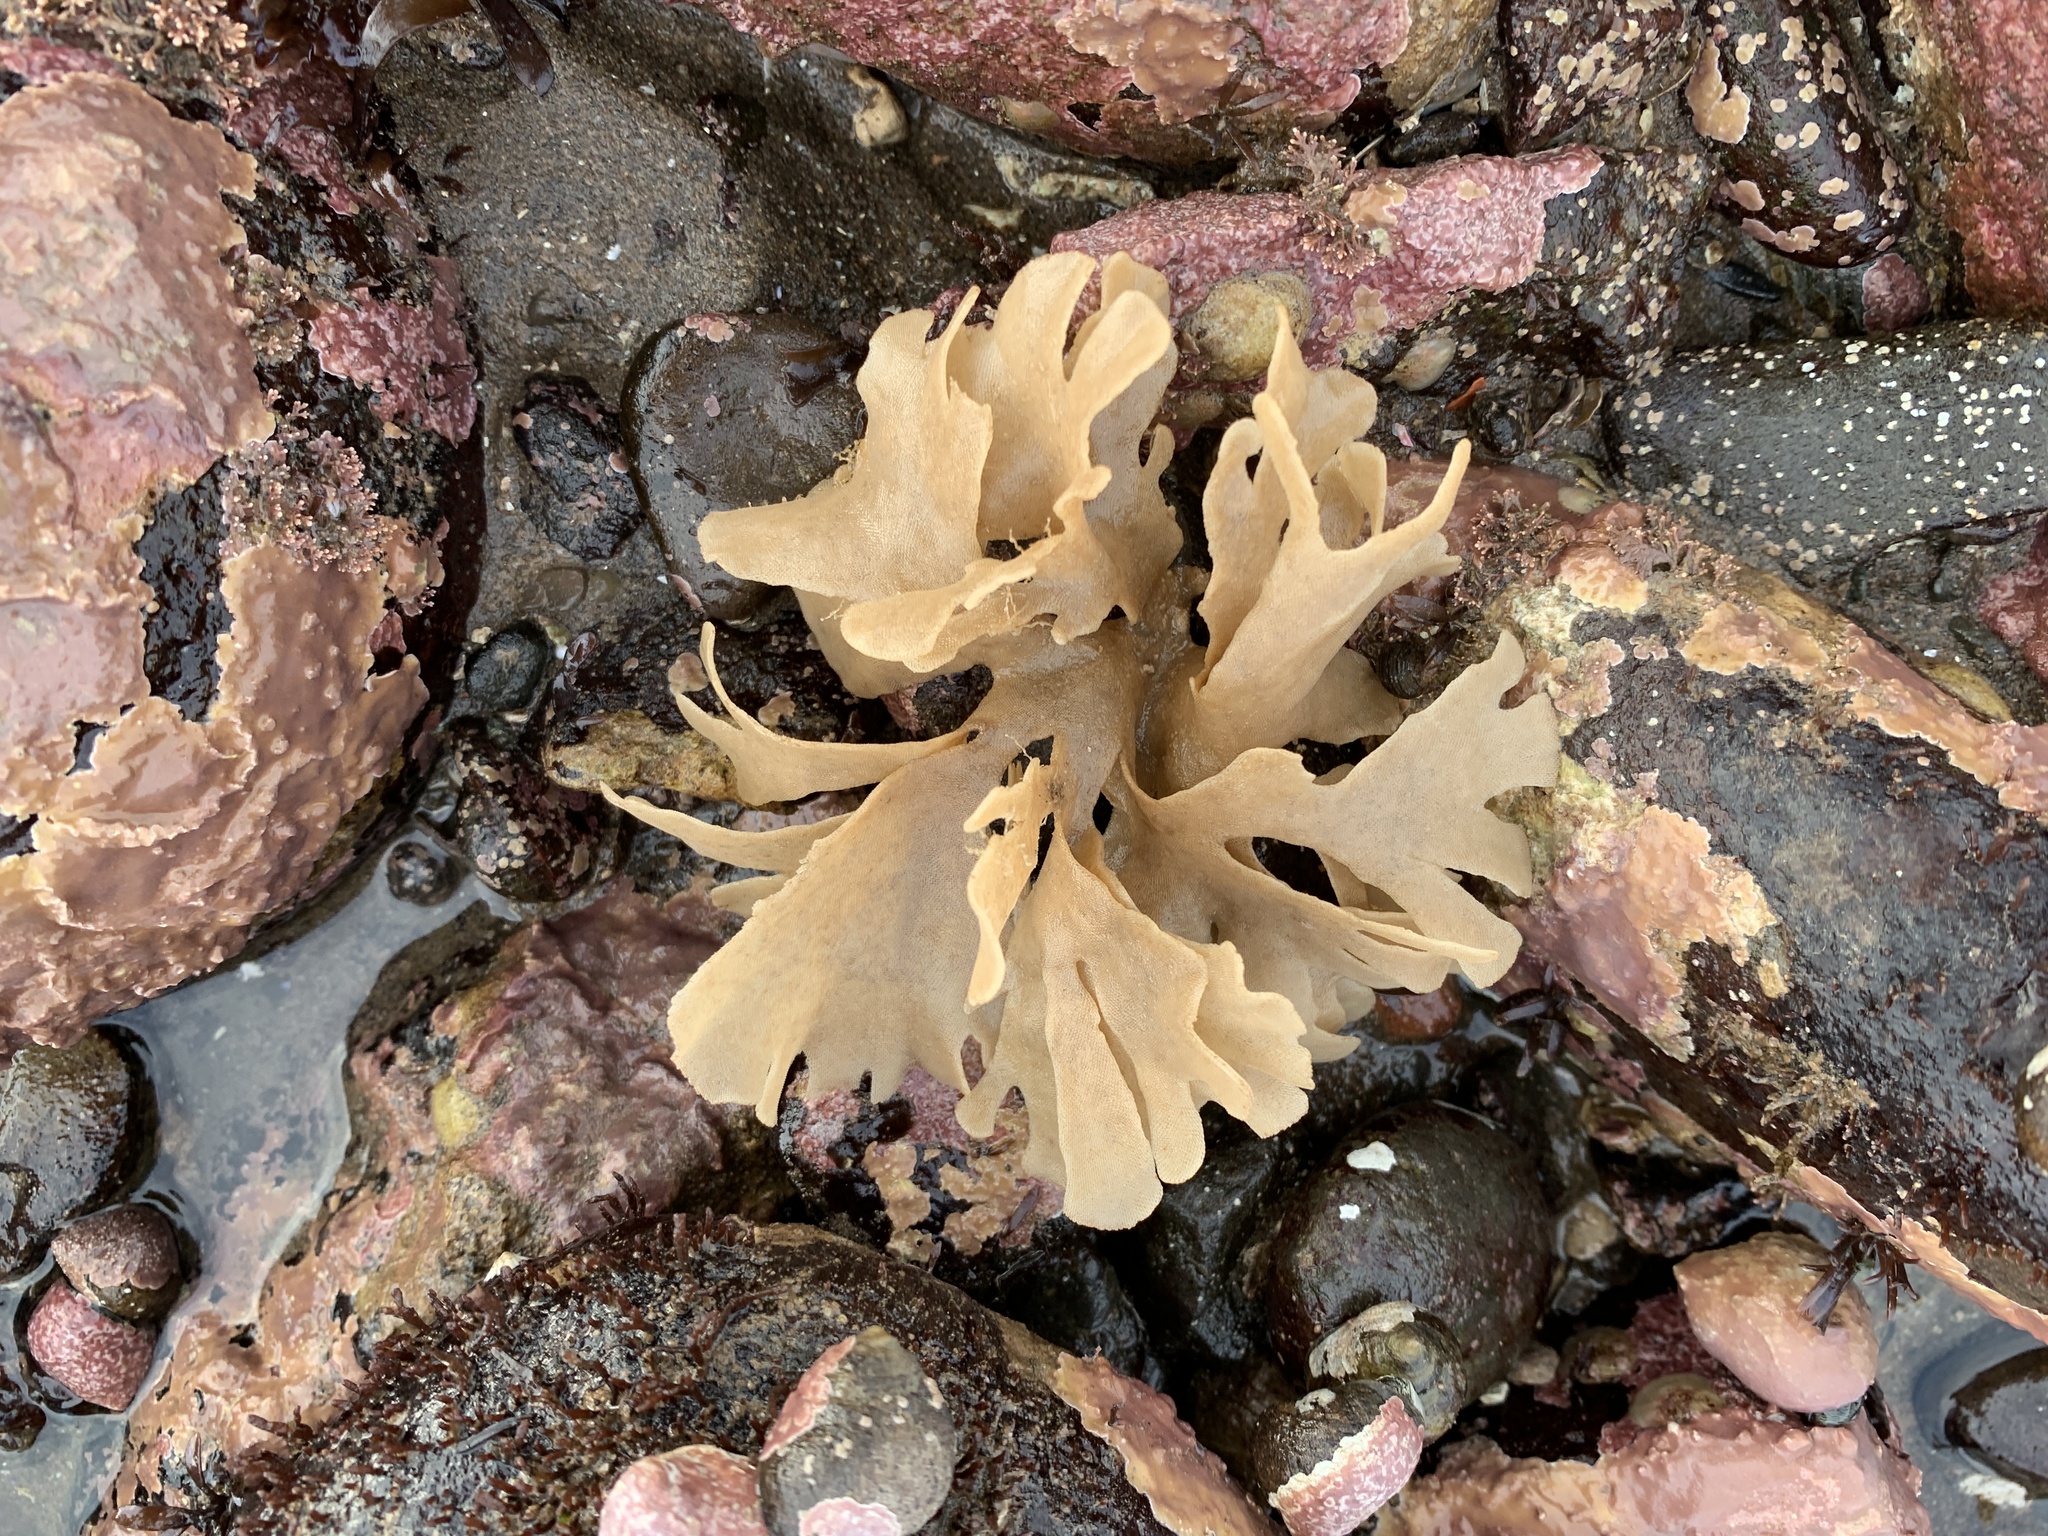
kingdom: Animalia
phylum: Bryozoa
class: Gymnolaemata
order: Cheilostomatida
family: Flustridae
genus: Flustra
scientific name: Flustra foliacea
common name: Hornwrack
